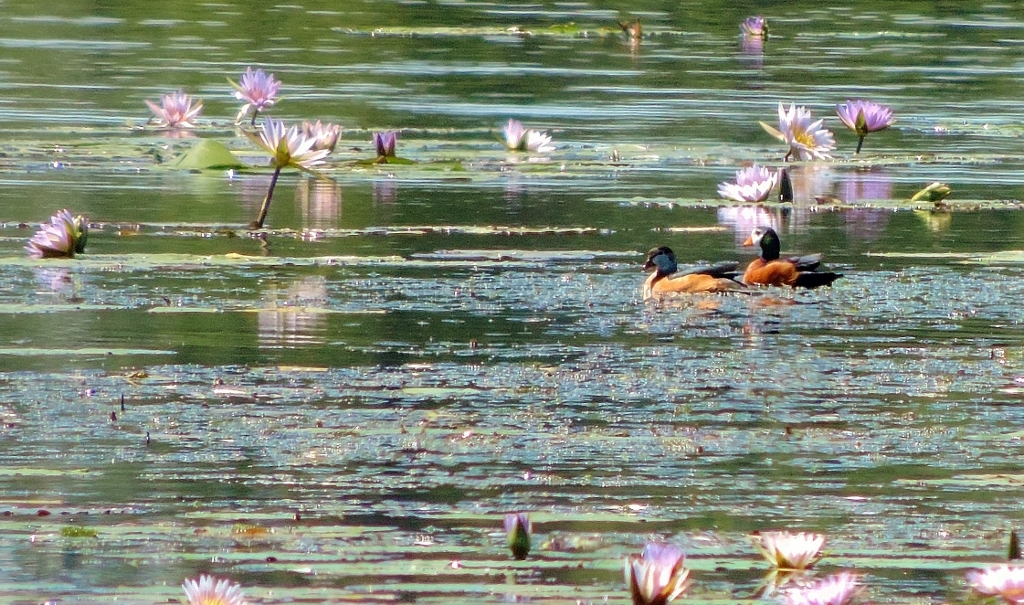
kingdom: Animalia
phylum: Chordata
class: Aves
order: Anseriformes
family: Anatidae
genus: Nettapus
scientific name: Nettapus auritus
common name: African pygmy-goose
